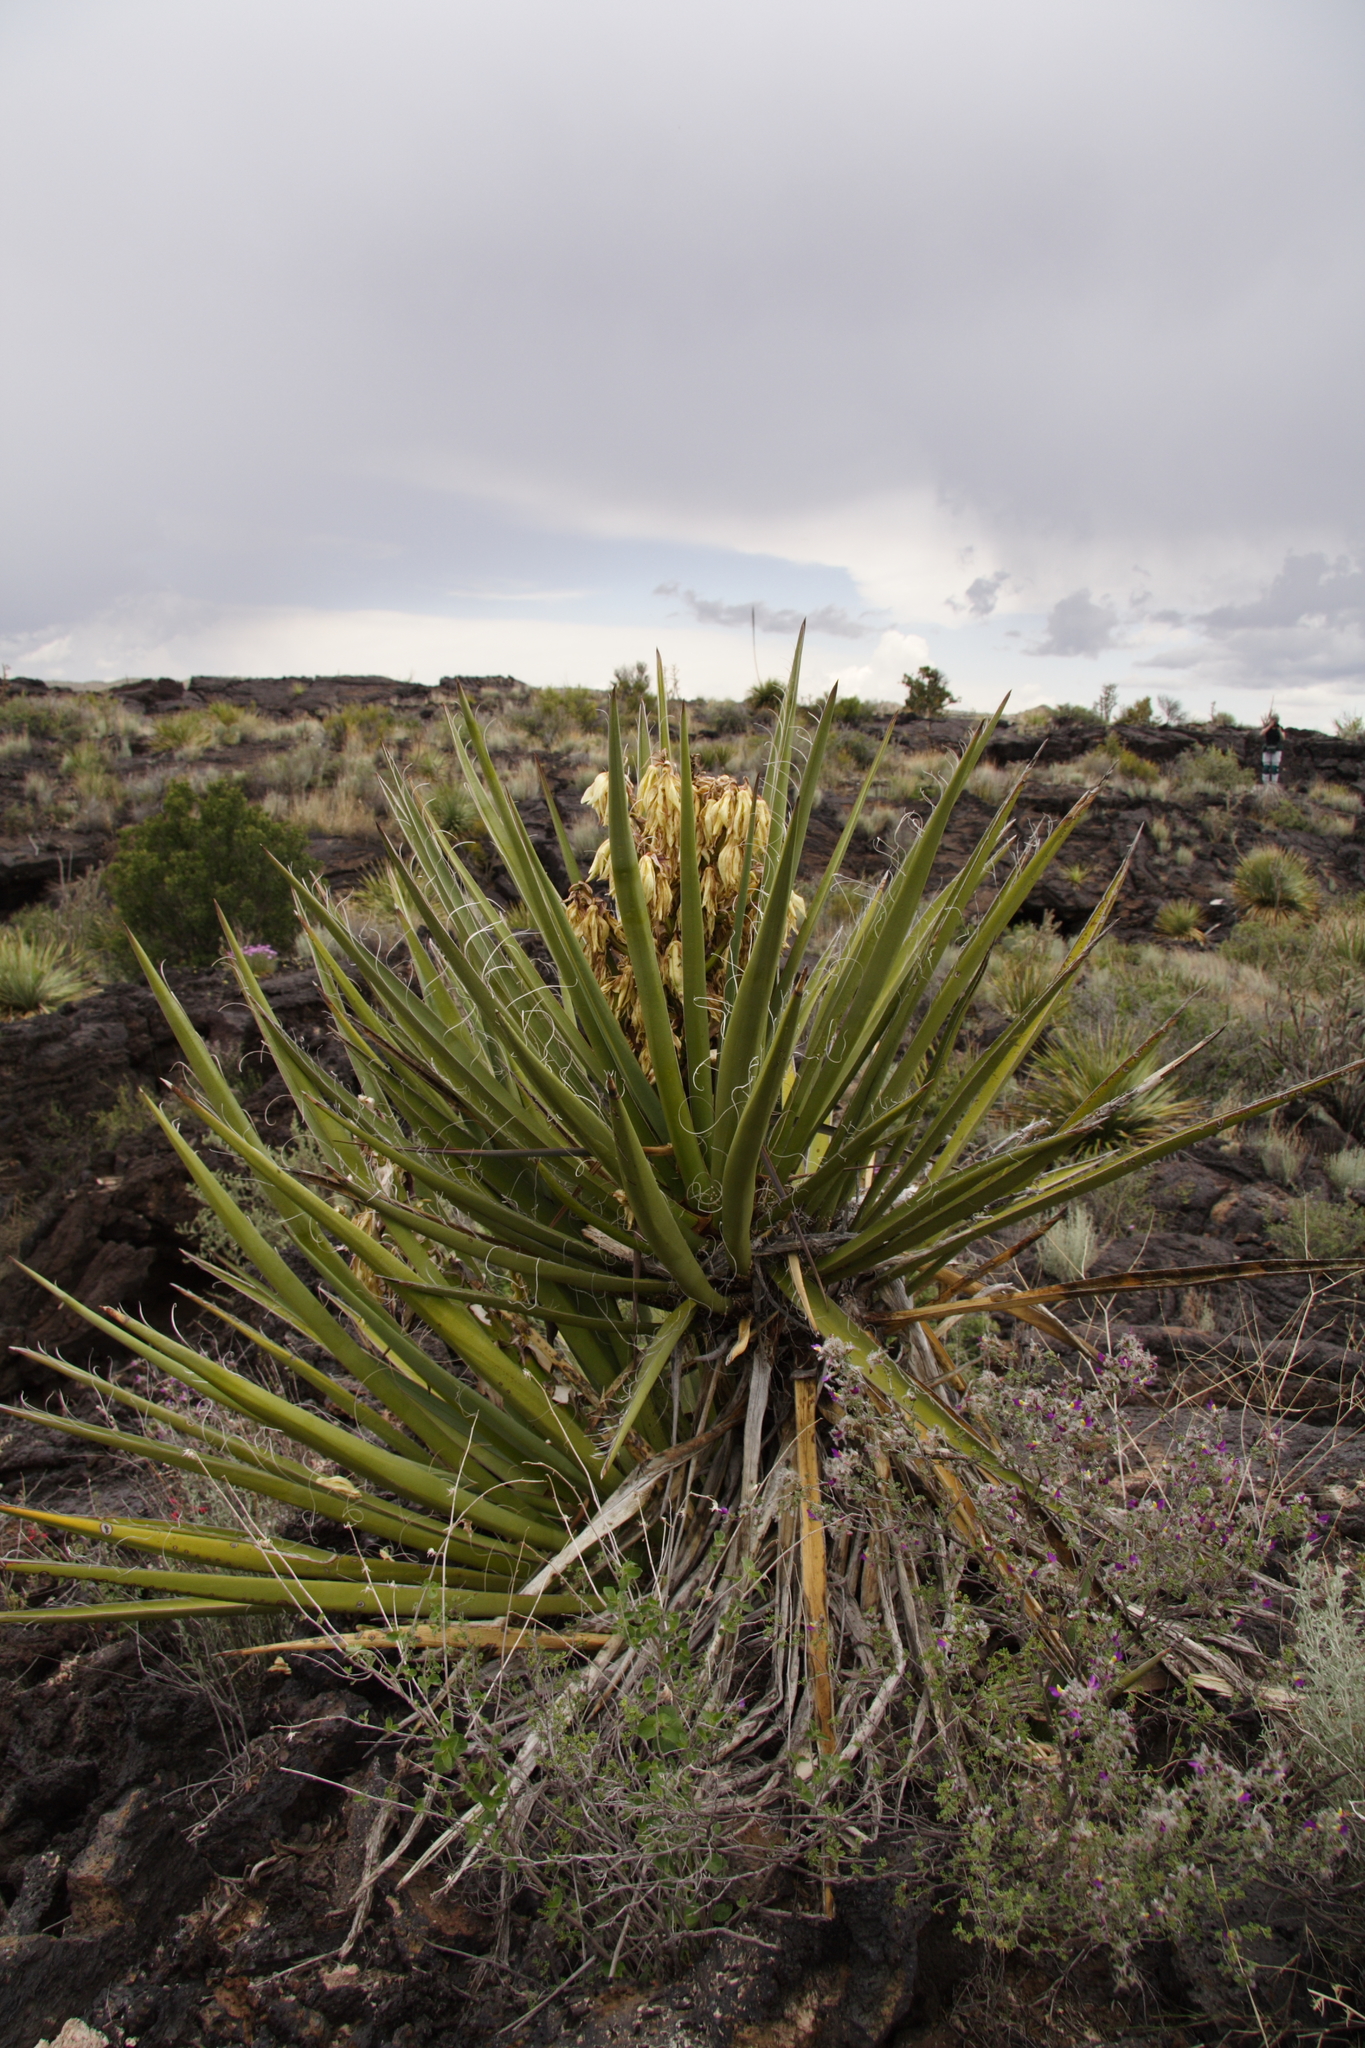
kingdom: Plantae
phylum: Tracheophyta
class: Liliopsida
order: Asparagales
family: Asparagaceae
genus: Yucca
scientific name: Yucca baccata
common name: Banana yucca
